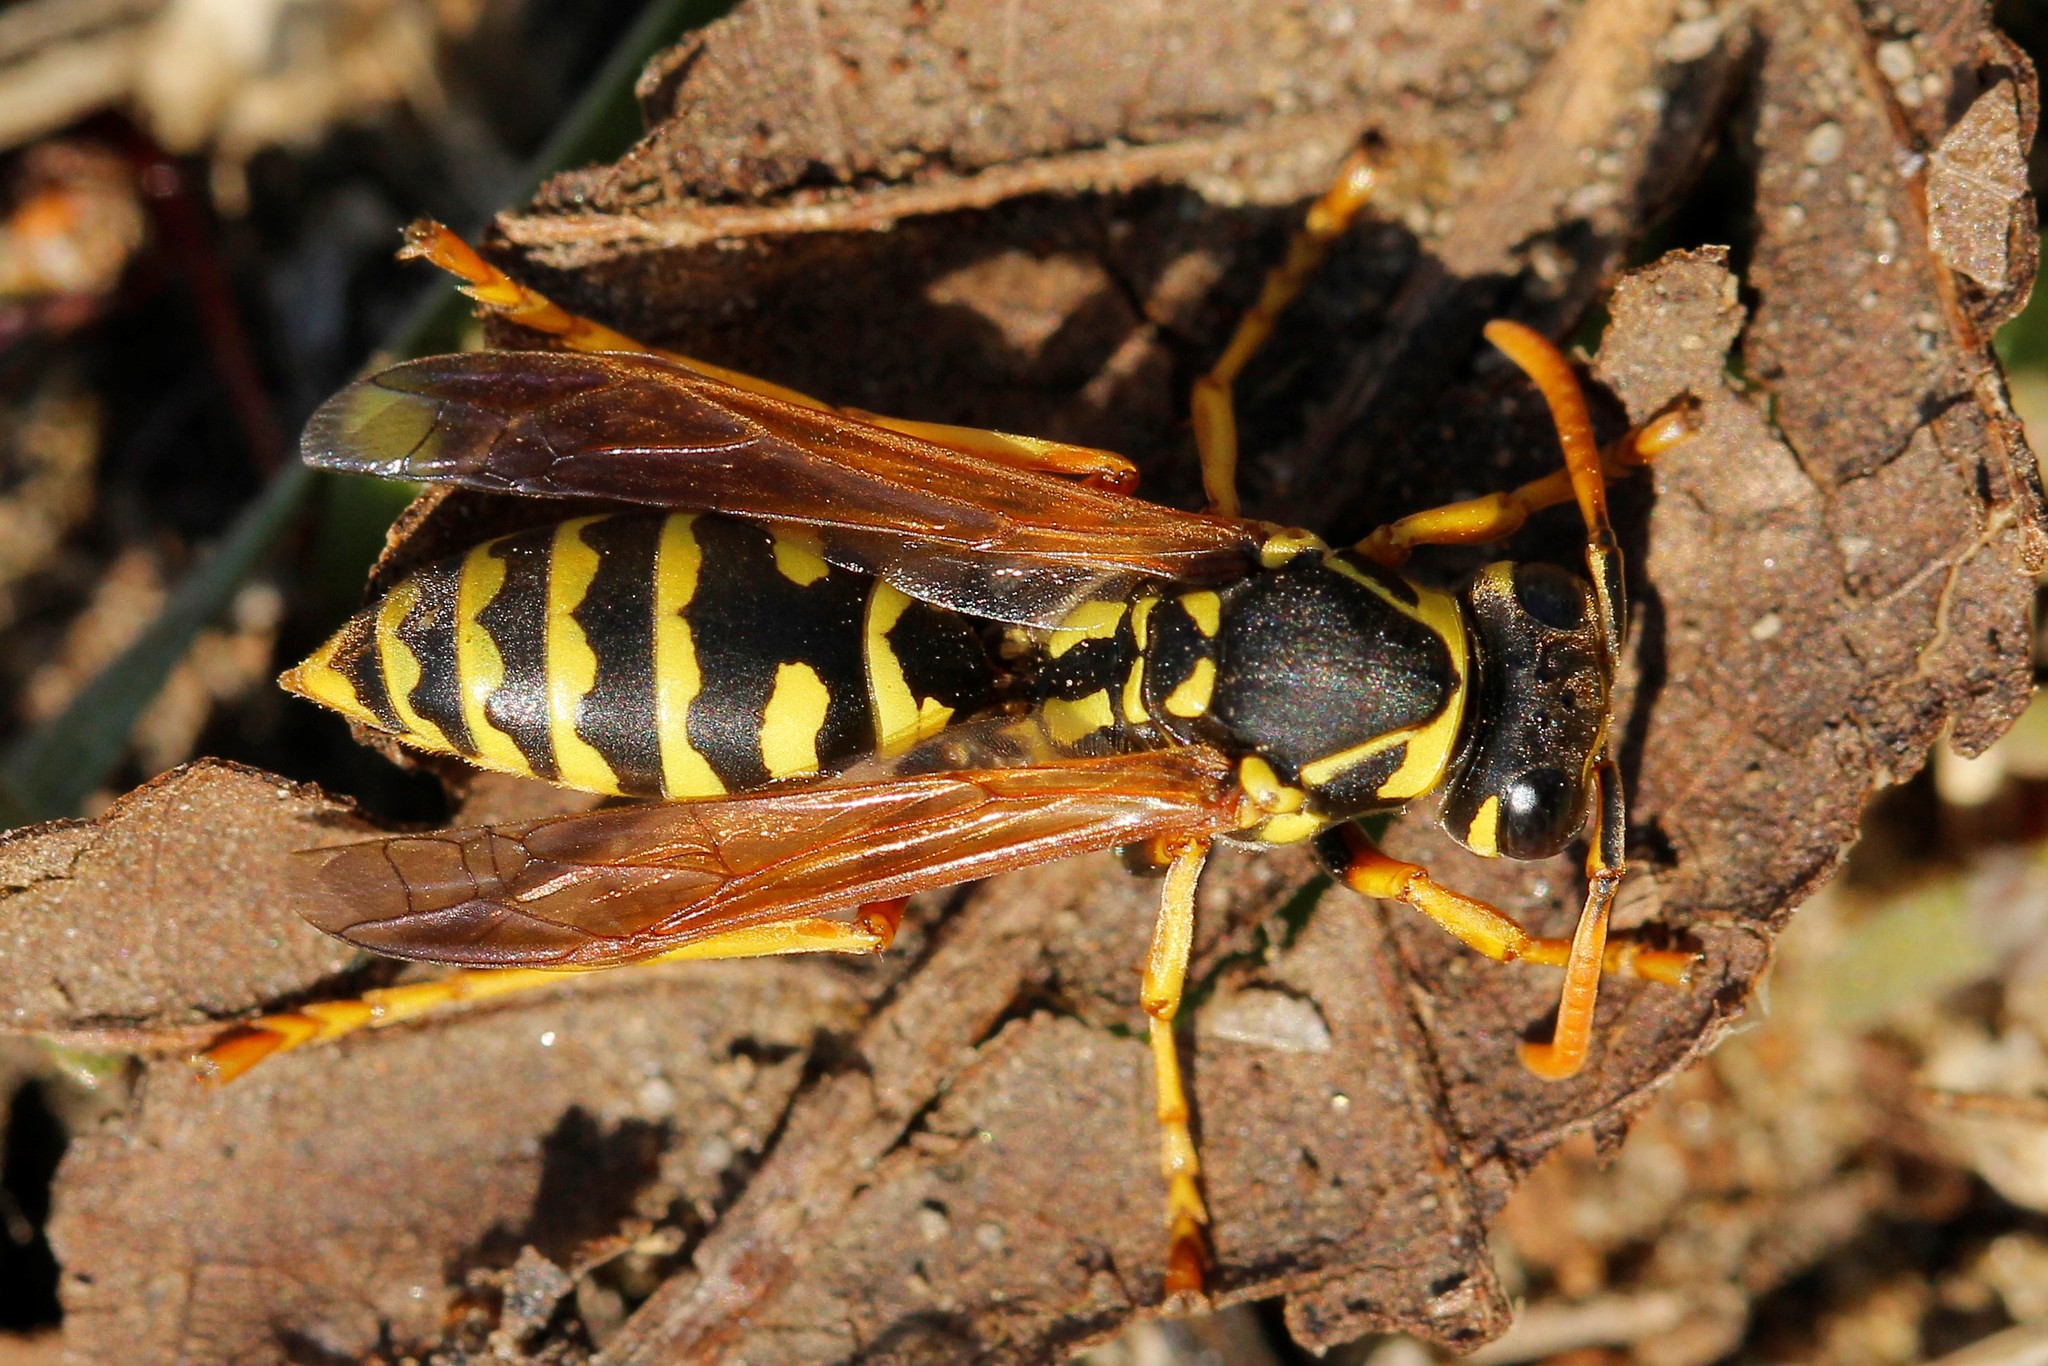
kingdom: Animalia
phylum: Arthropoda
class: Insecta
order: Hymenoptera
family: Eumenidae
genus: Polistes
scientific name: Polistes dominula
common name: Paper wasp
